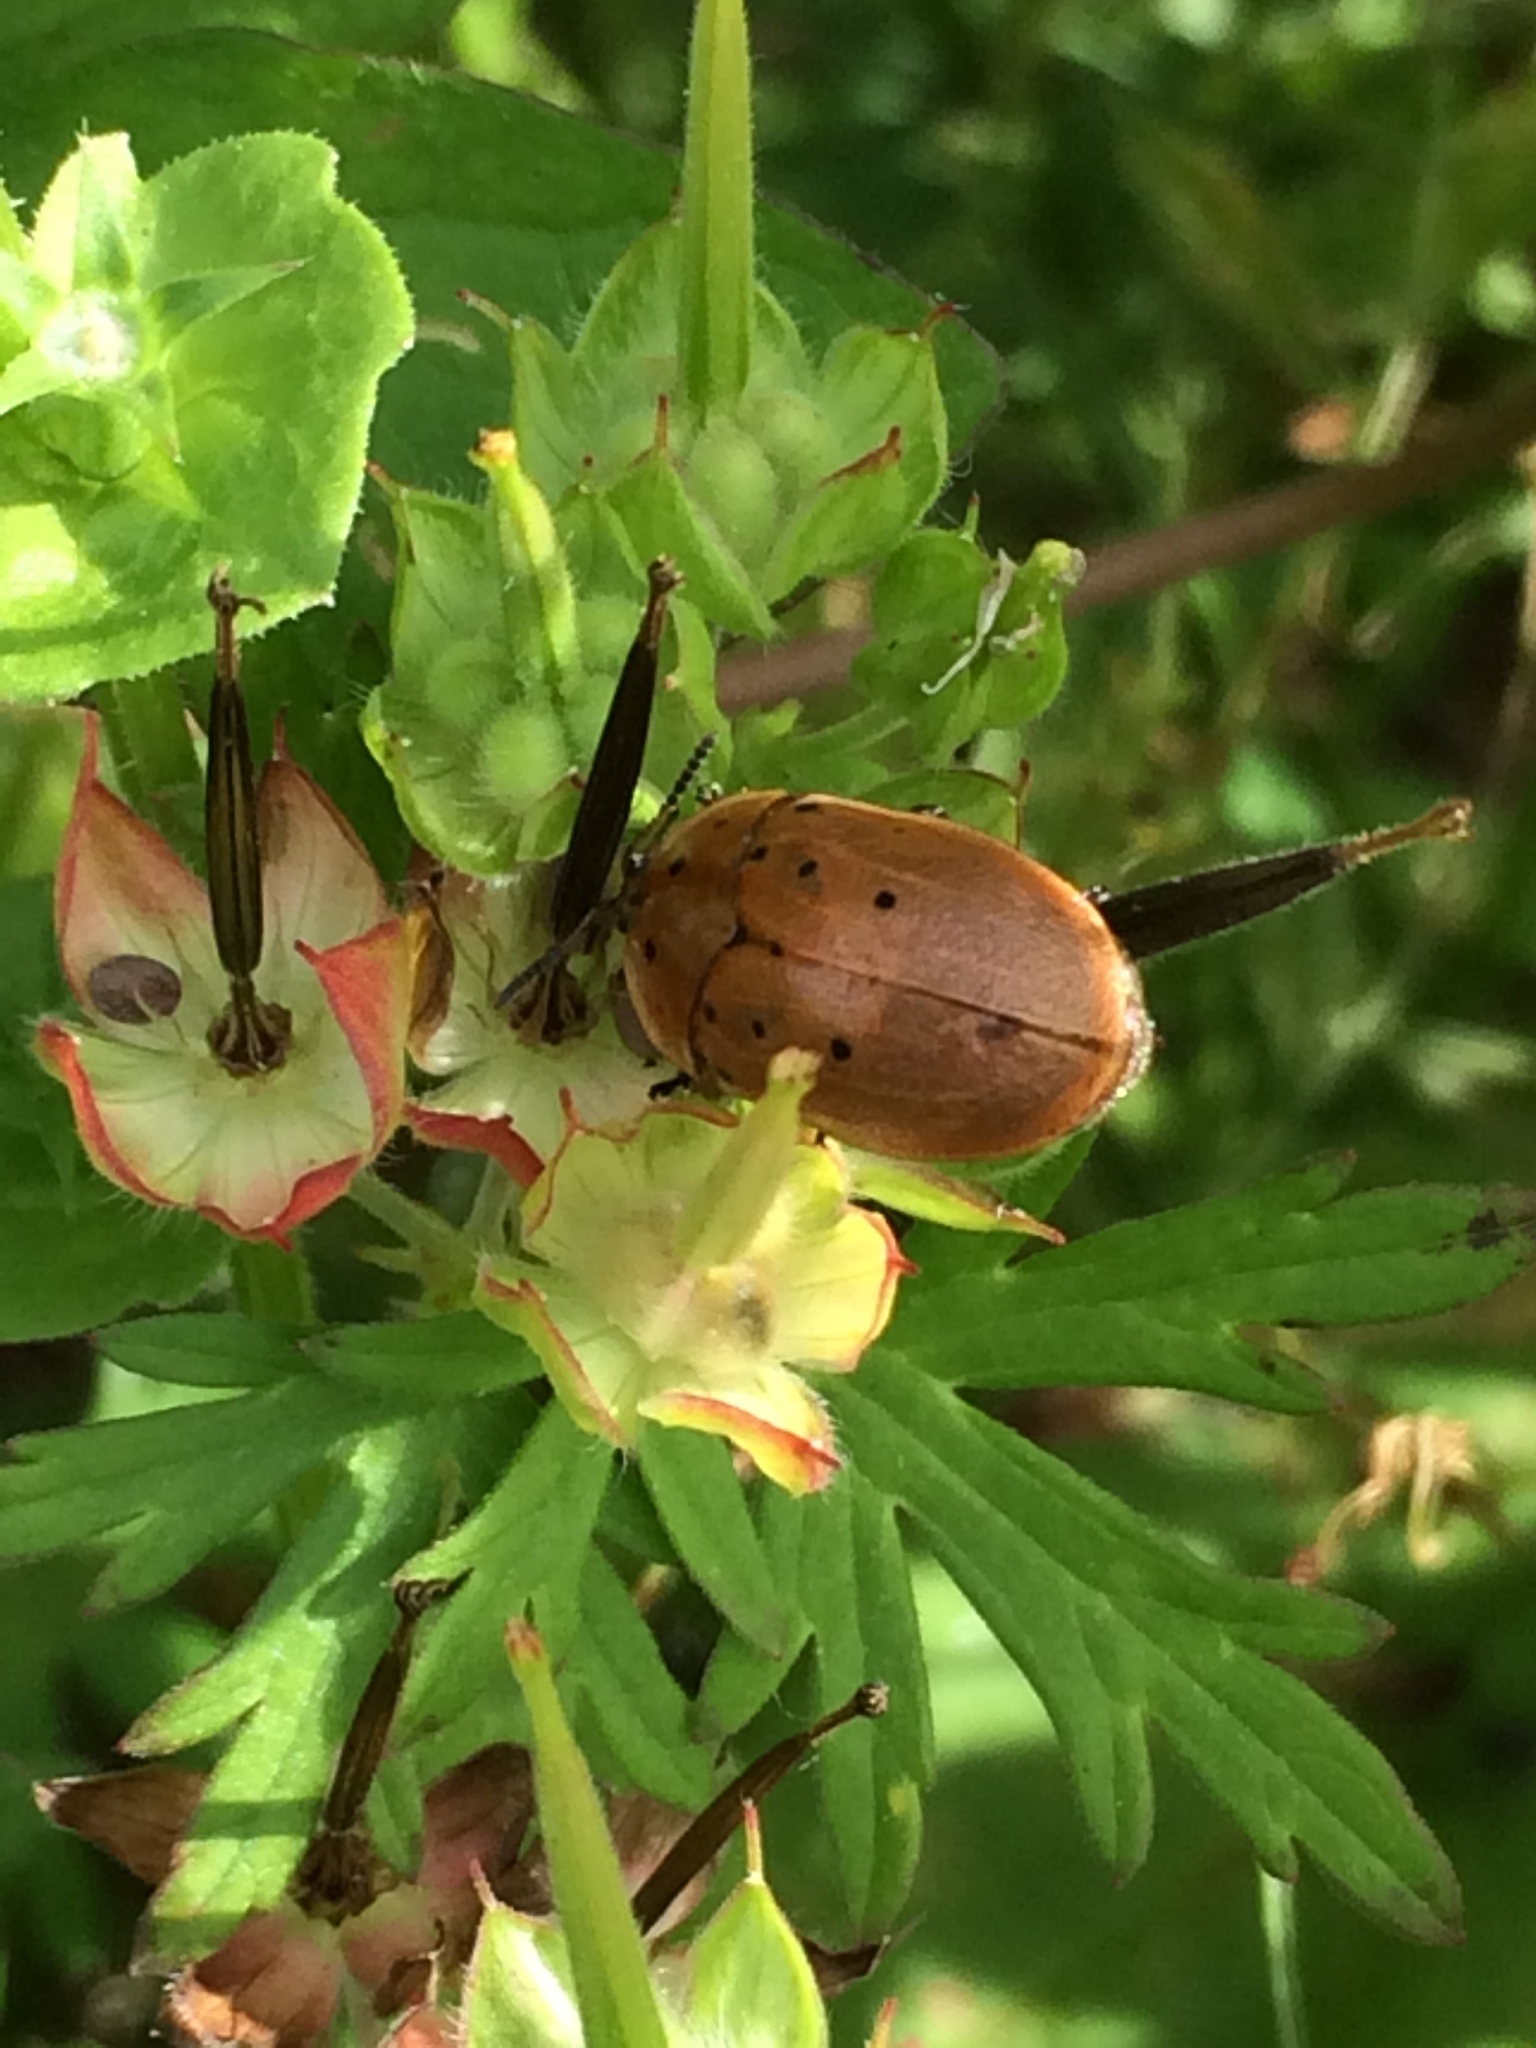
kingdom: Animalia
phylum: Arthropoda
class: Insecta
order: Coleoptera
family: Chrysomelidae
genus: Chelymorpha
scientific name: Chelymorpha cassidea
